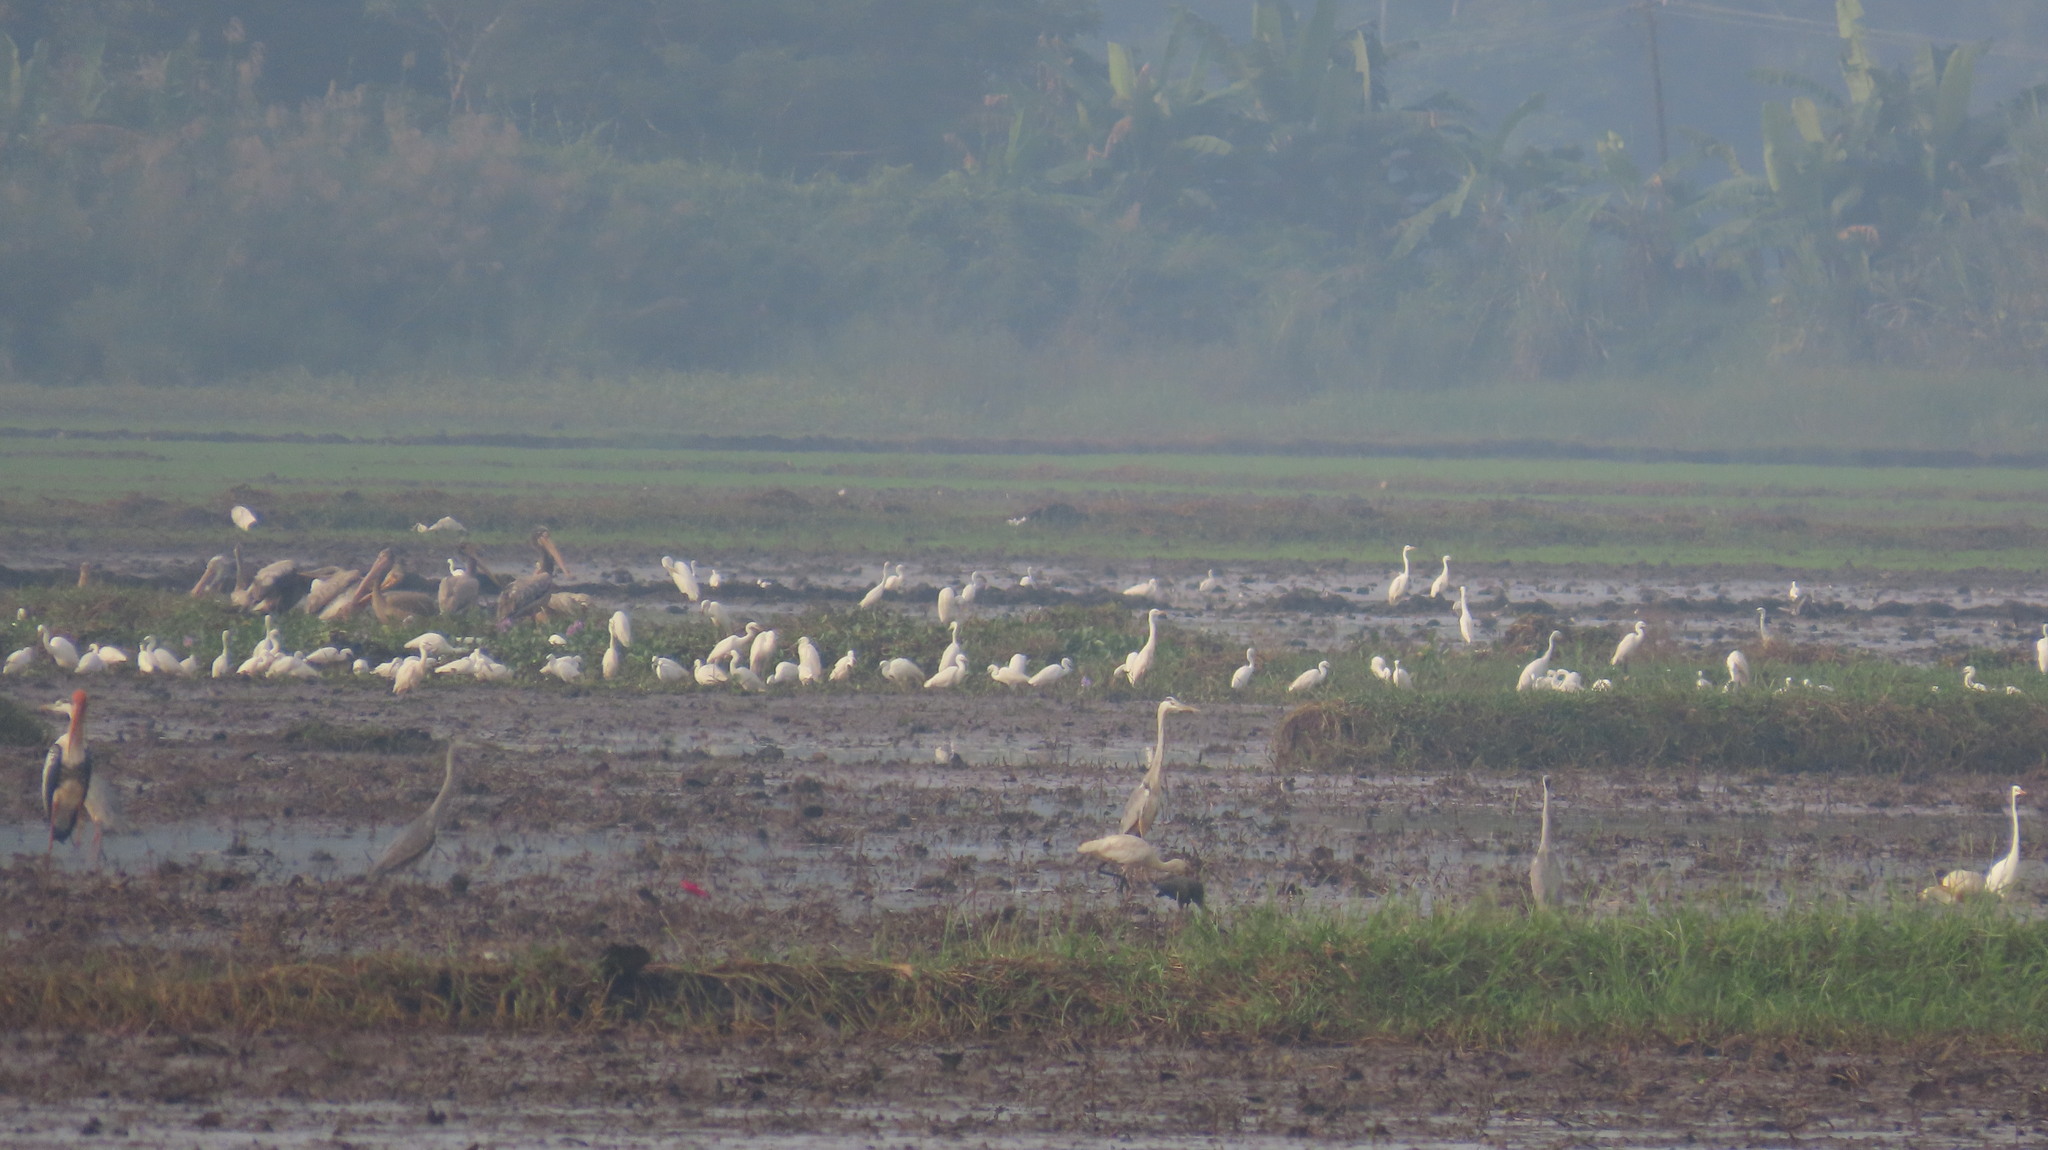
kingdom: Animalia
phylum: Chordata
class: Aves
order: Ciconiiformes
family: Ciconiidae
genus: Mycteria
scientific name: Mycteria leucocephala
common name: Painted stork
